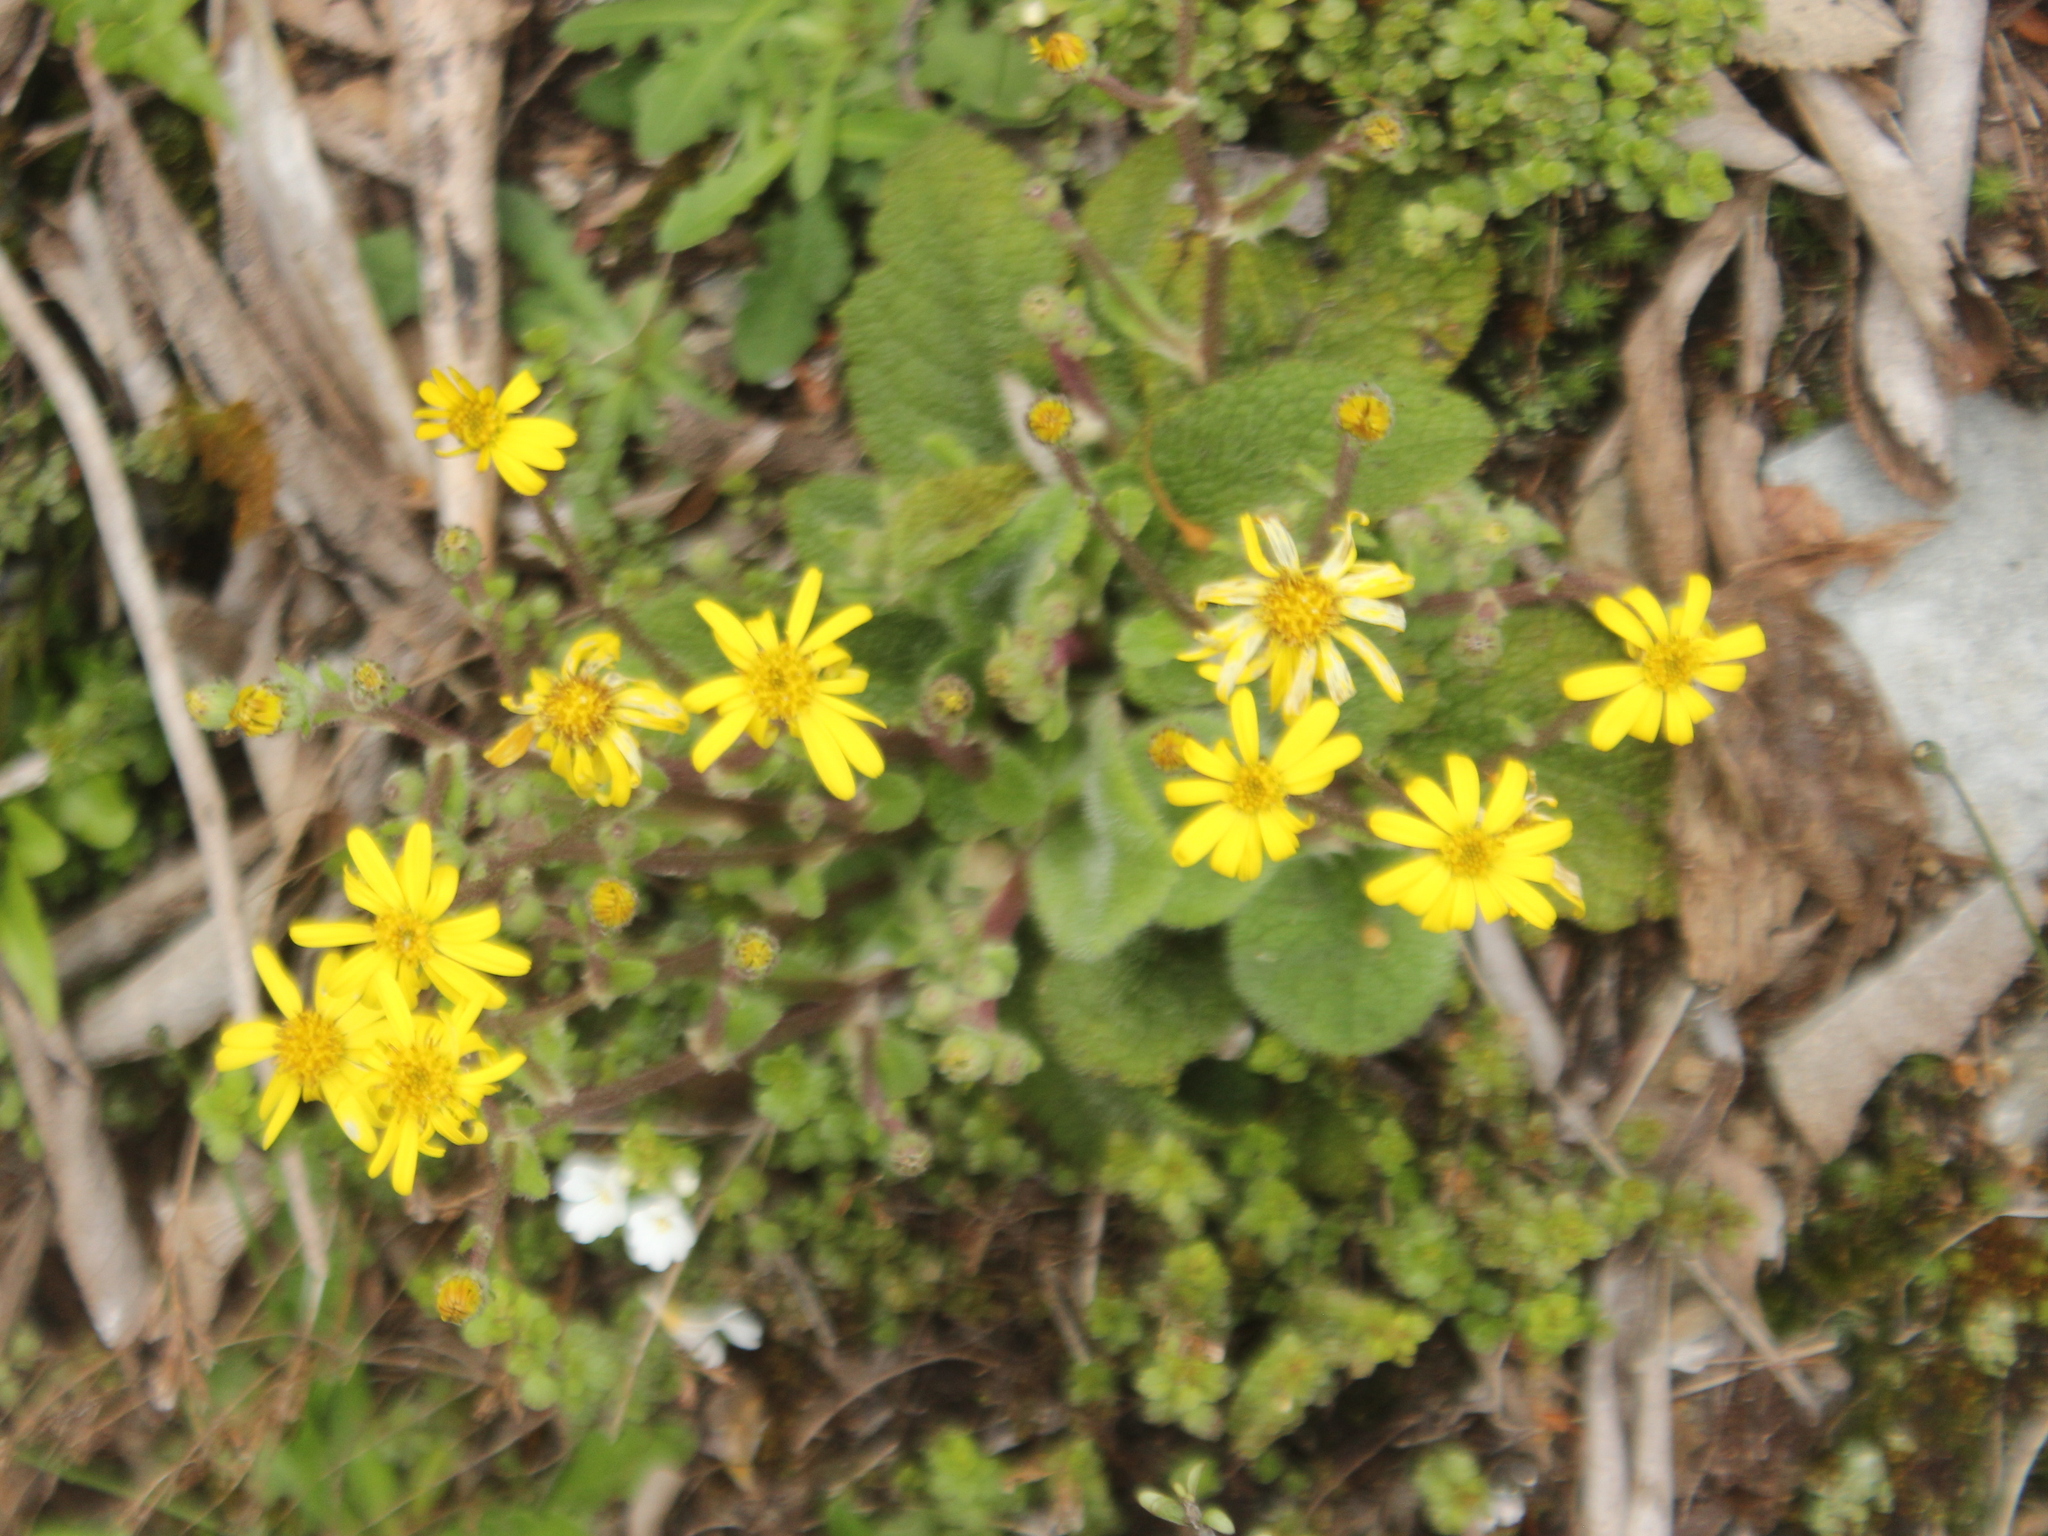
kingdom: Plantae
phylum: Tracheophyta
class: Magnoliopsida
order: Asterales
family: Asteraceae
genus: Brachyglottis
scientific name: Brachyglottis lagopus
